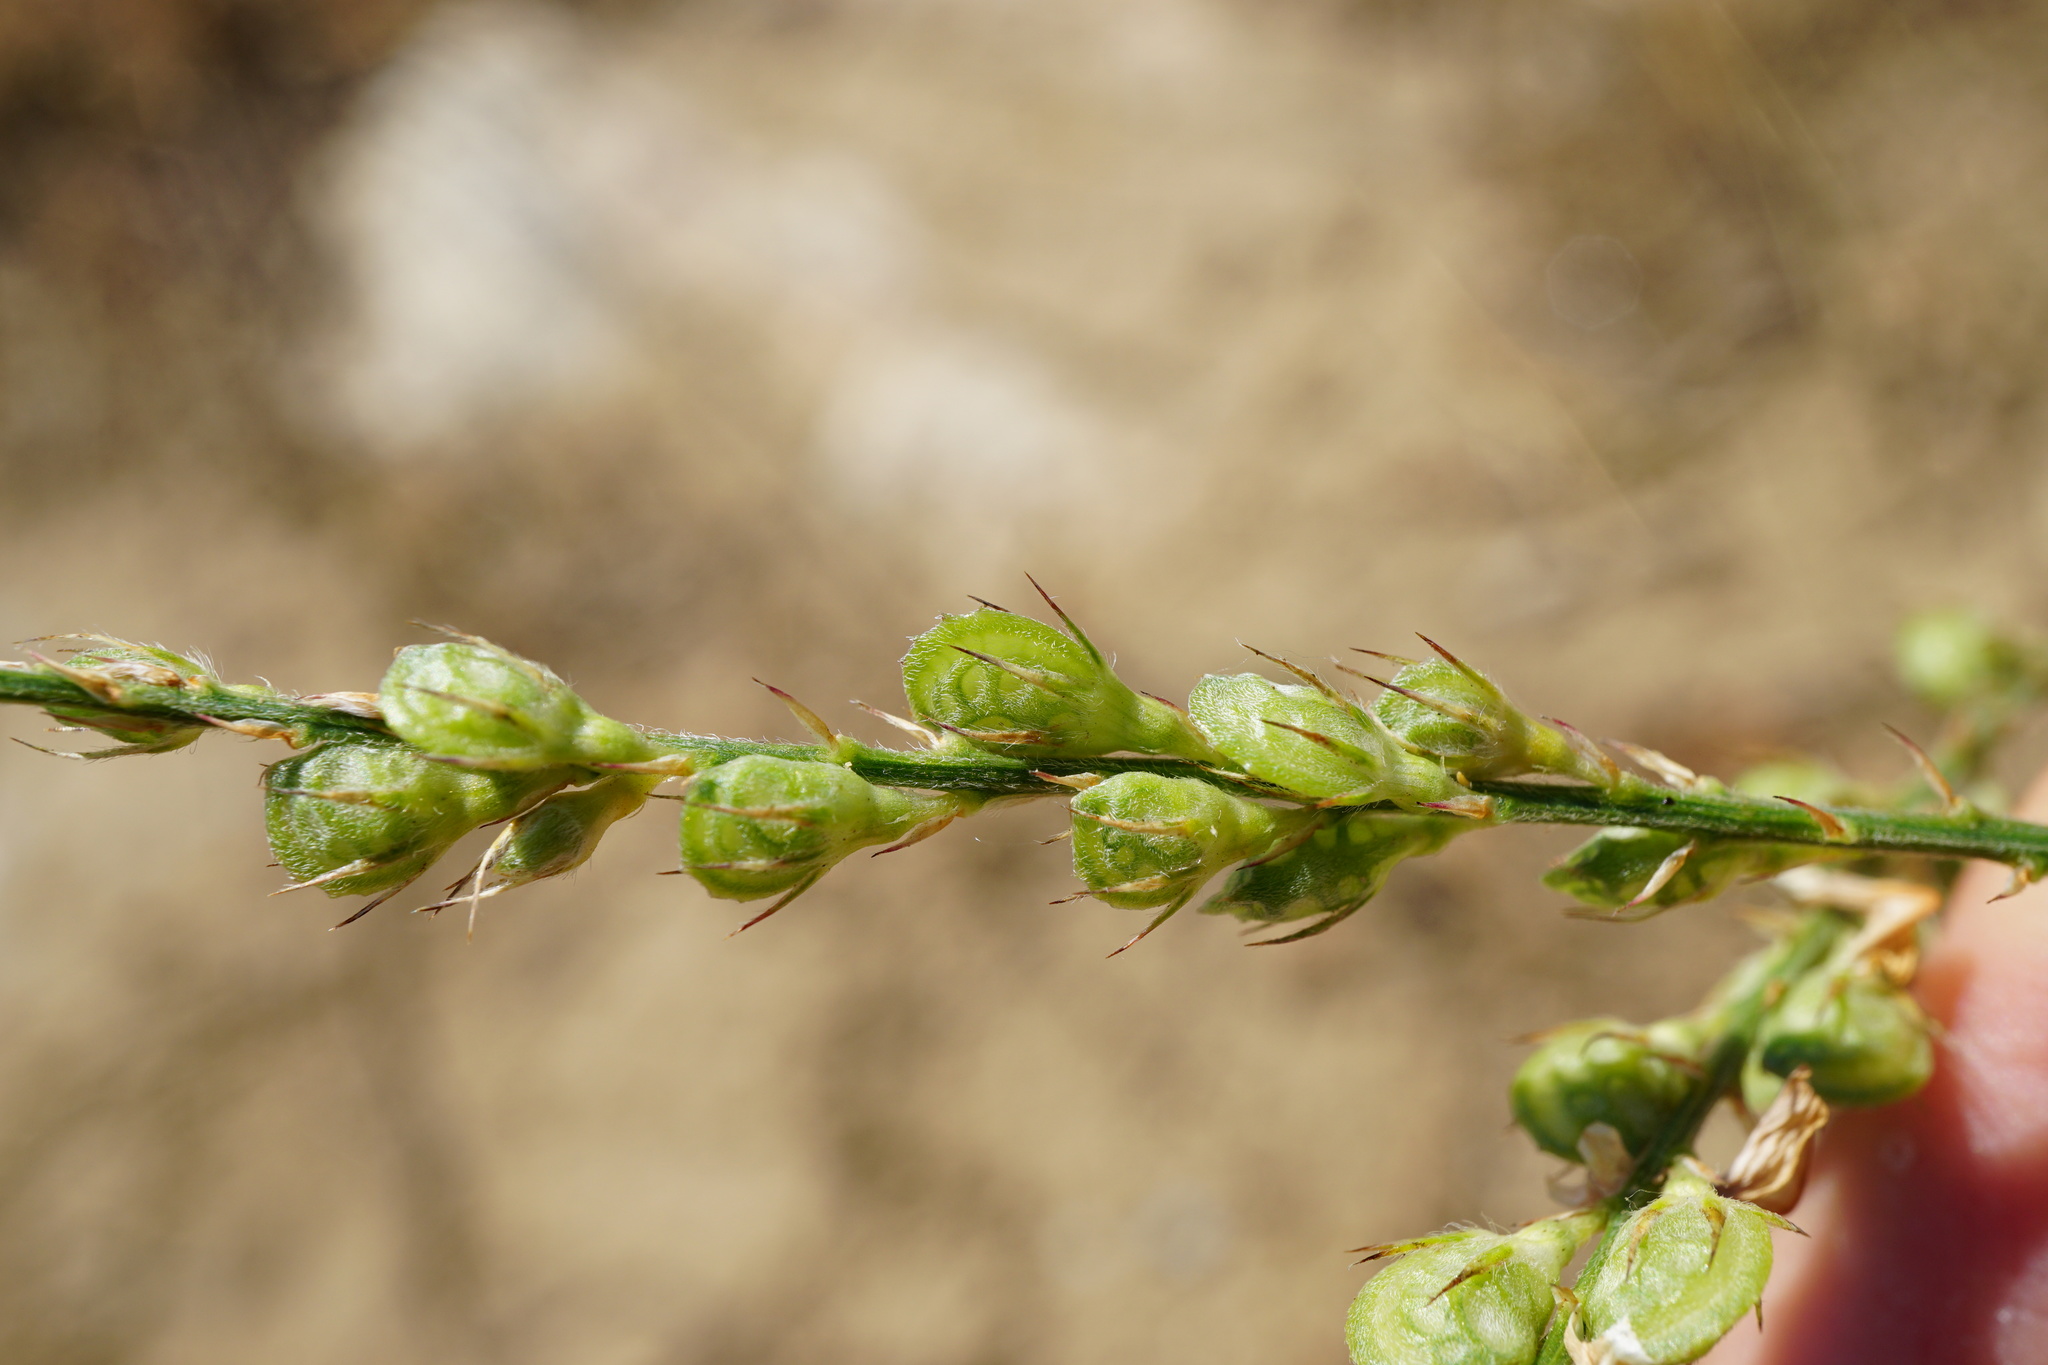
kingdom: Plantae
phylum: Tracheophyta
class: Magnoliopsida
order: Fabales
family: Fabaceae
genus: Onobrychis
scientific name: Onobrychis arenaria
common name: Sand esparcet
